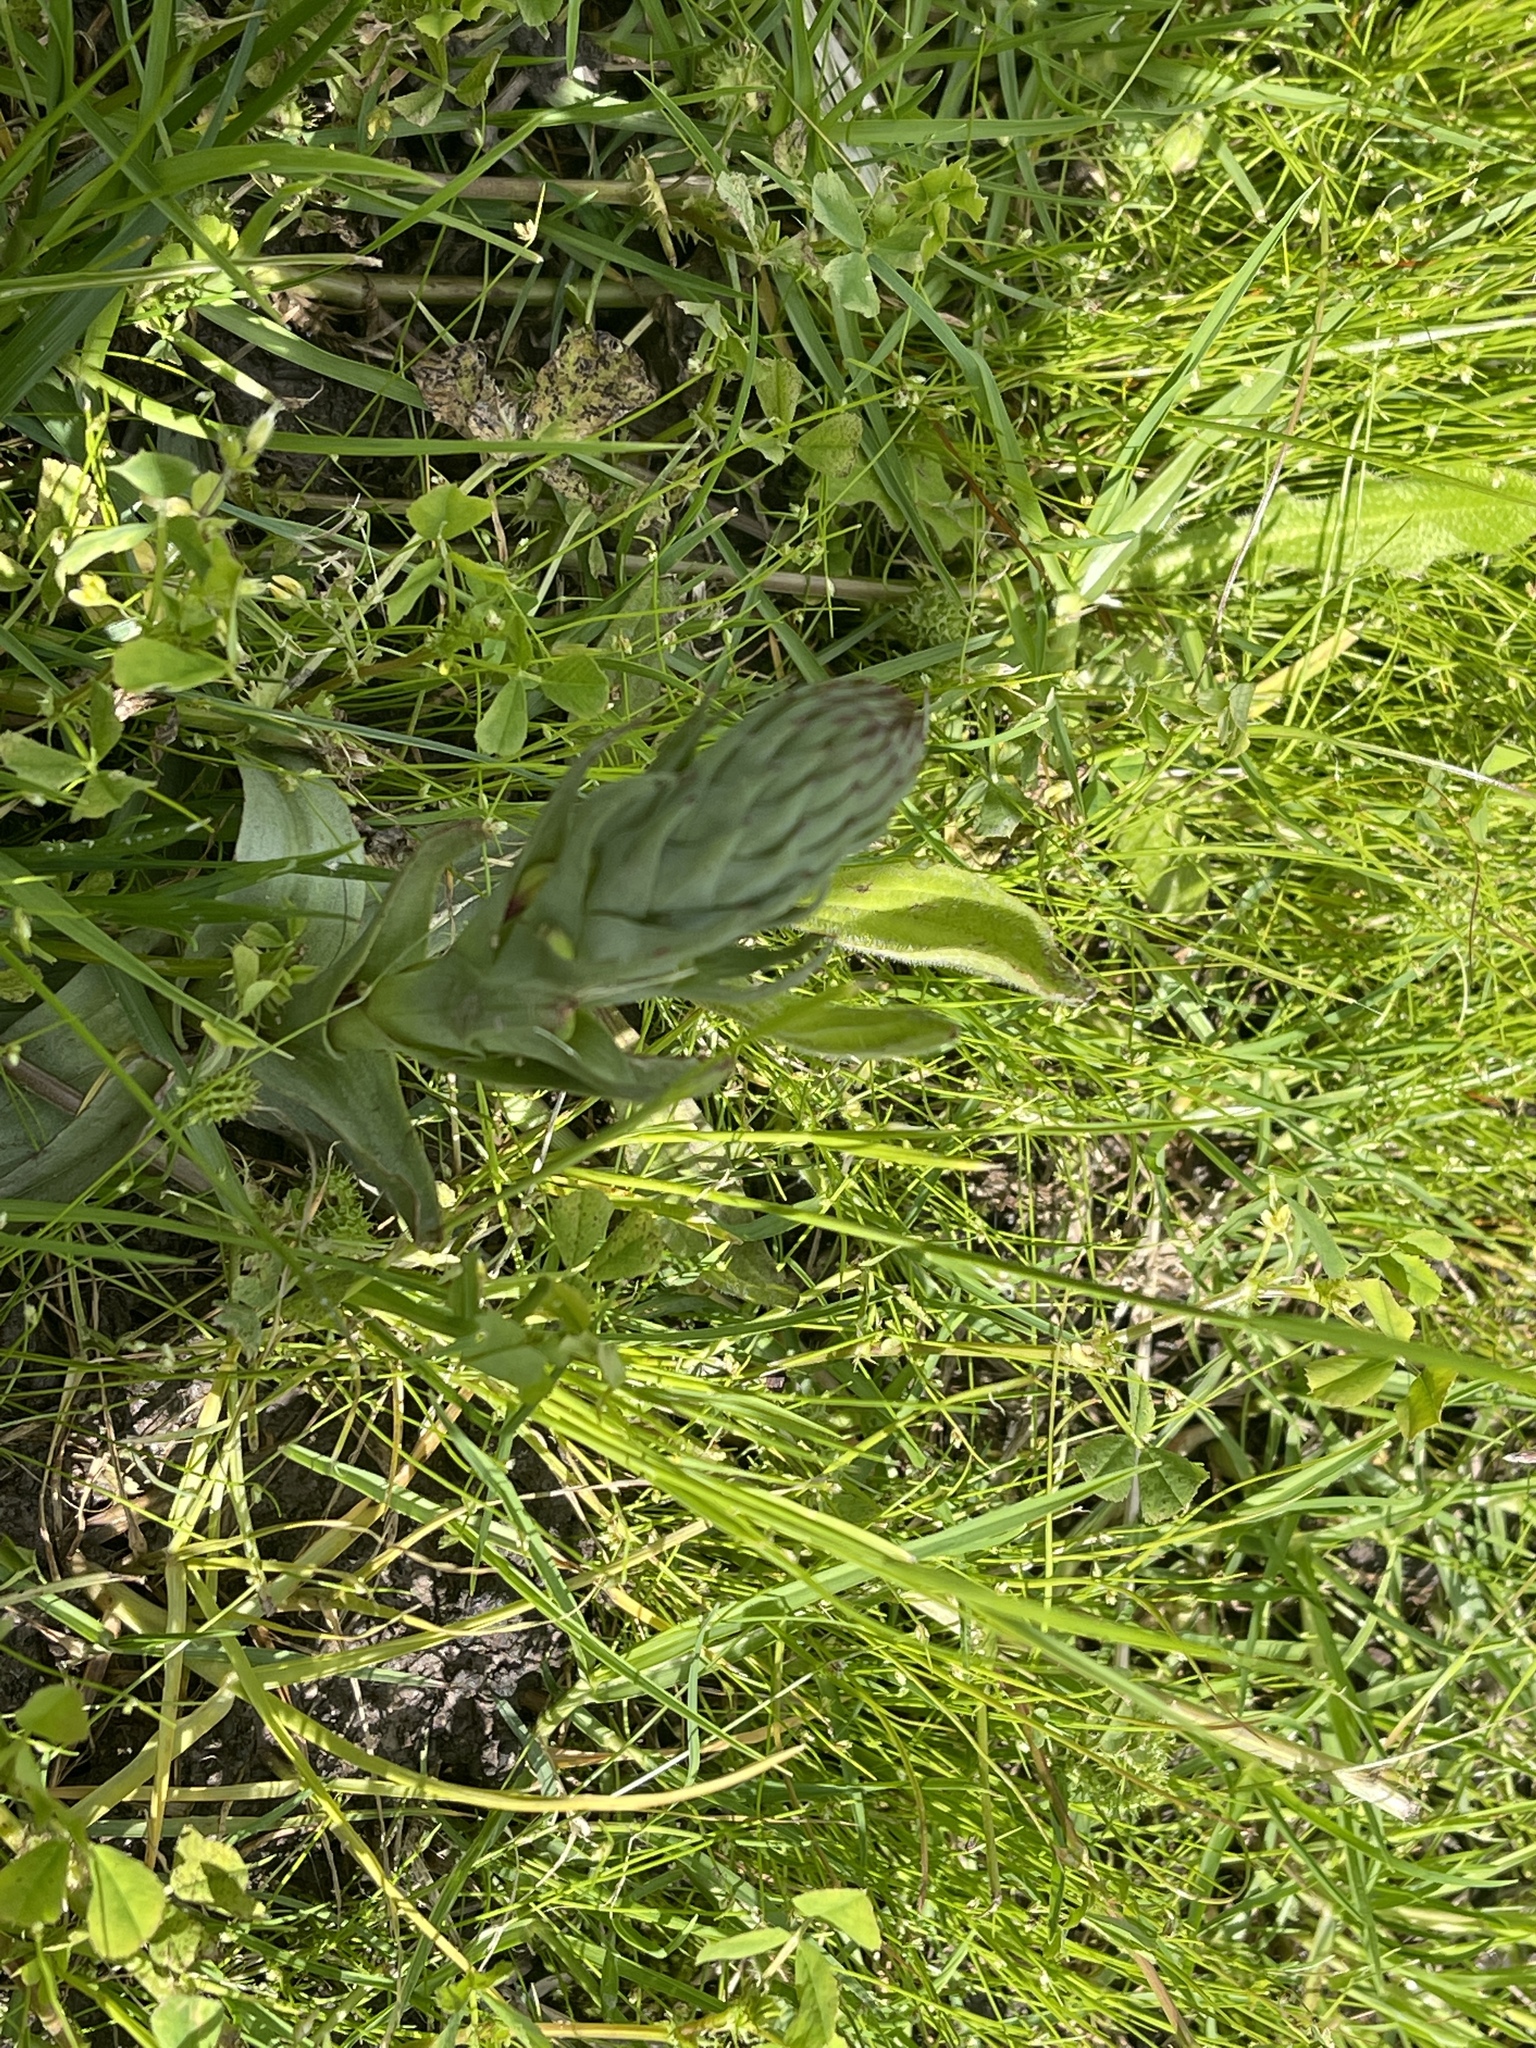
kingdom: Plantae
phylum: Tracheophyta
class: Liliopsida
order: Asparagales
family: Orchidaceae
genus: Disa
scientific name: Disa bracteata
